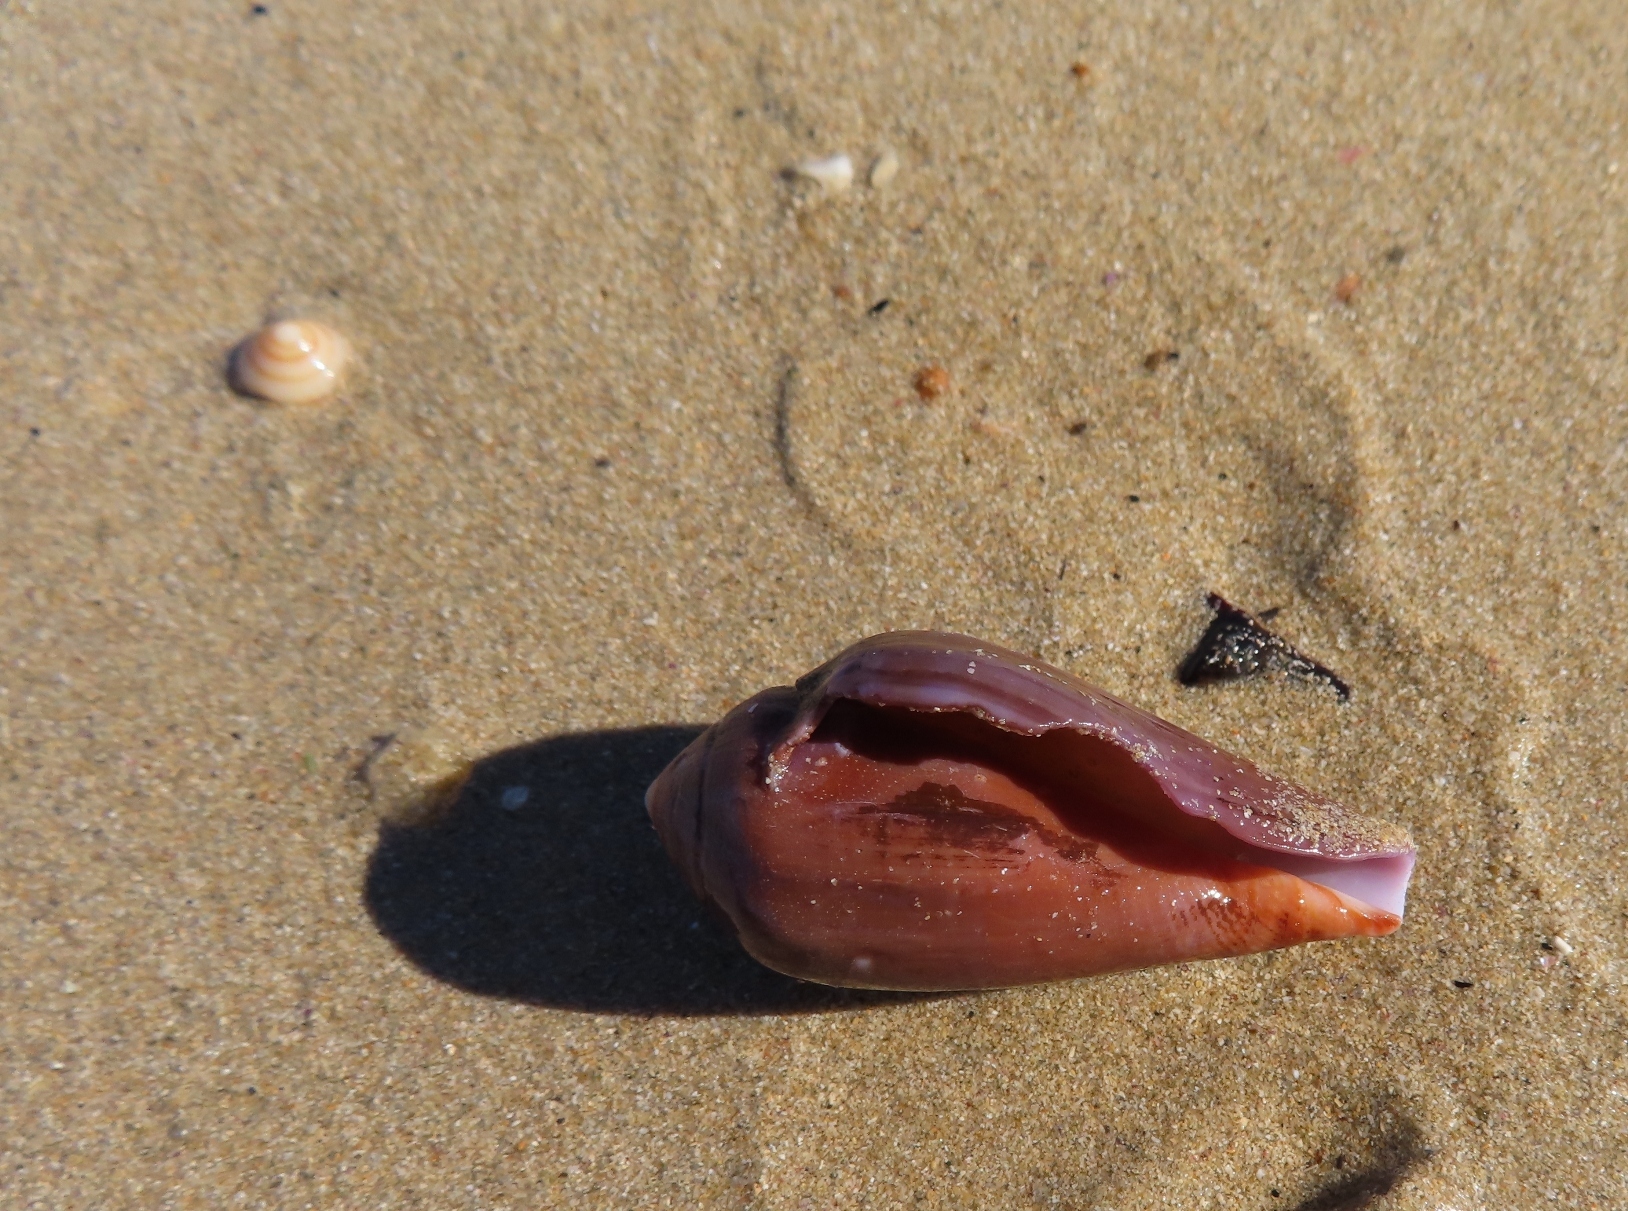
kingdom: Animalia
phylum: Mollusca
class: Gastropoda
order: Neogastropoda
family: Conidae
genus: Conus
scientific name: Conus mozambicus
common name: Elongate cone
